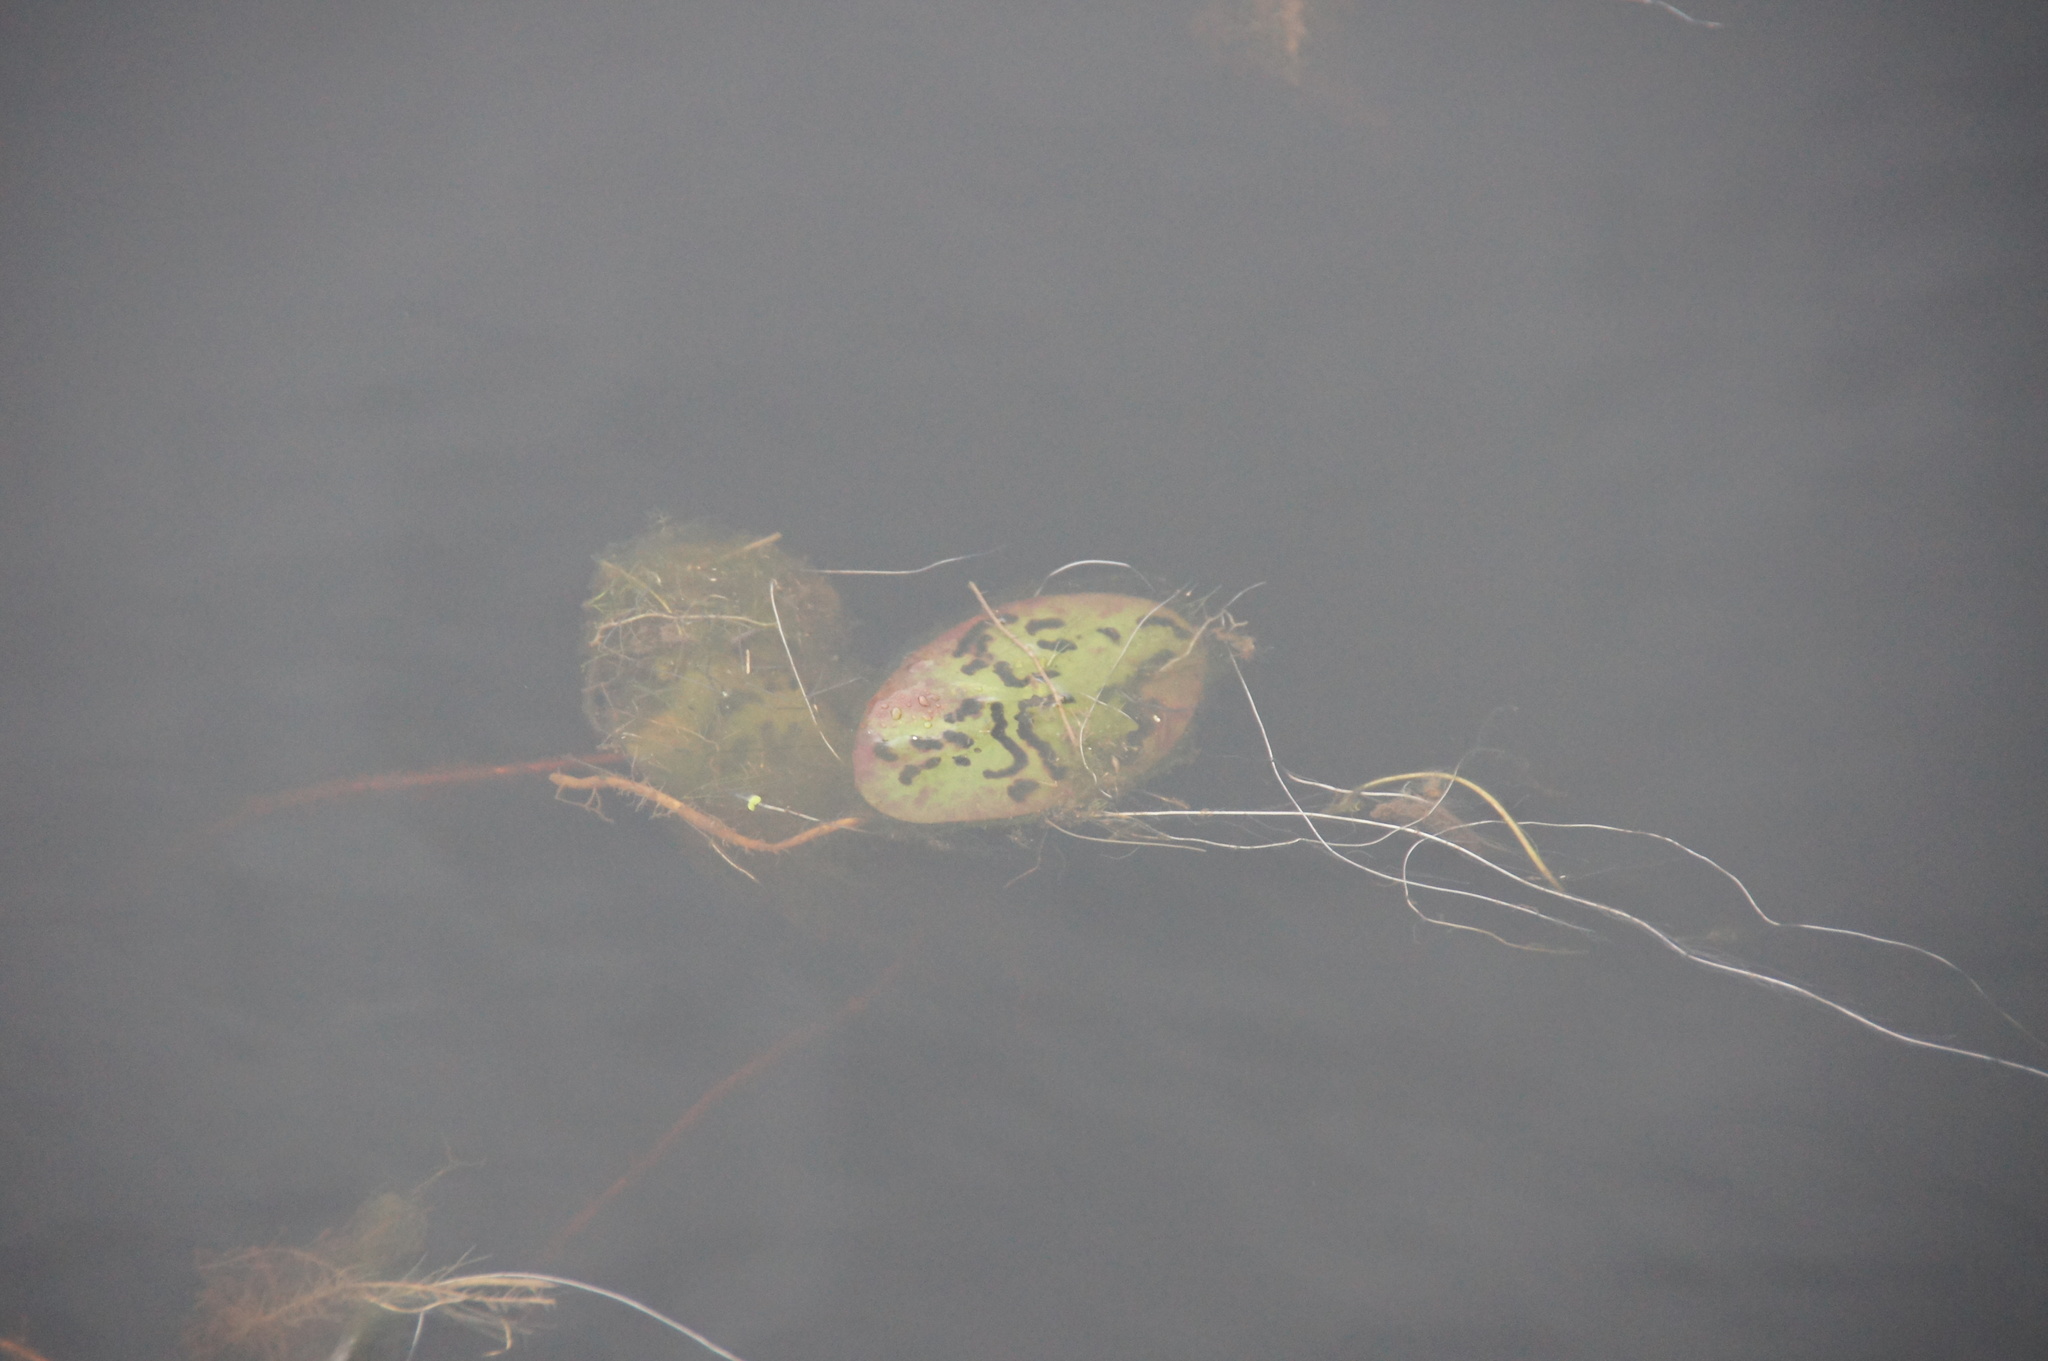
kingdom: Plantae
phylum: Tracheophyta
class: Magnoliopsida
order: Nymphaeales
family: Cabombaceae
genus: Brasenia
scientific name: Brasenia schreberi
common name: Water-shield
